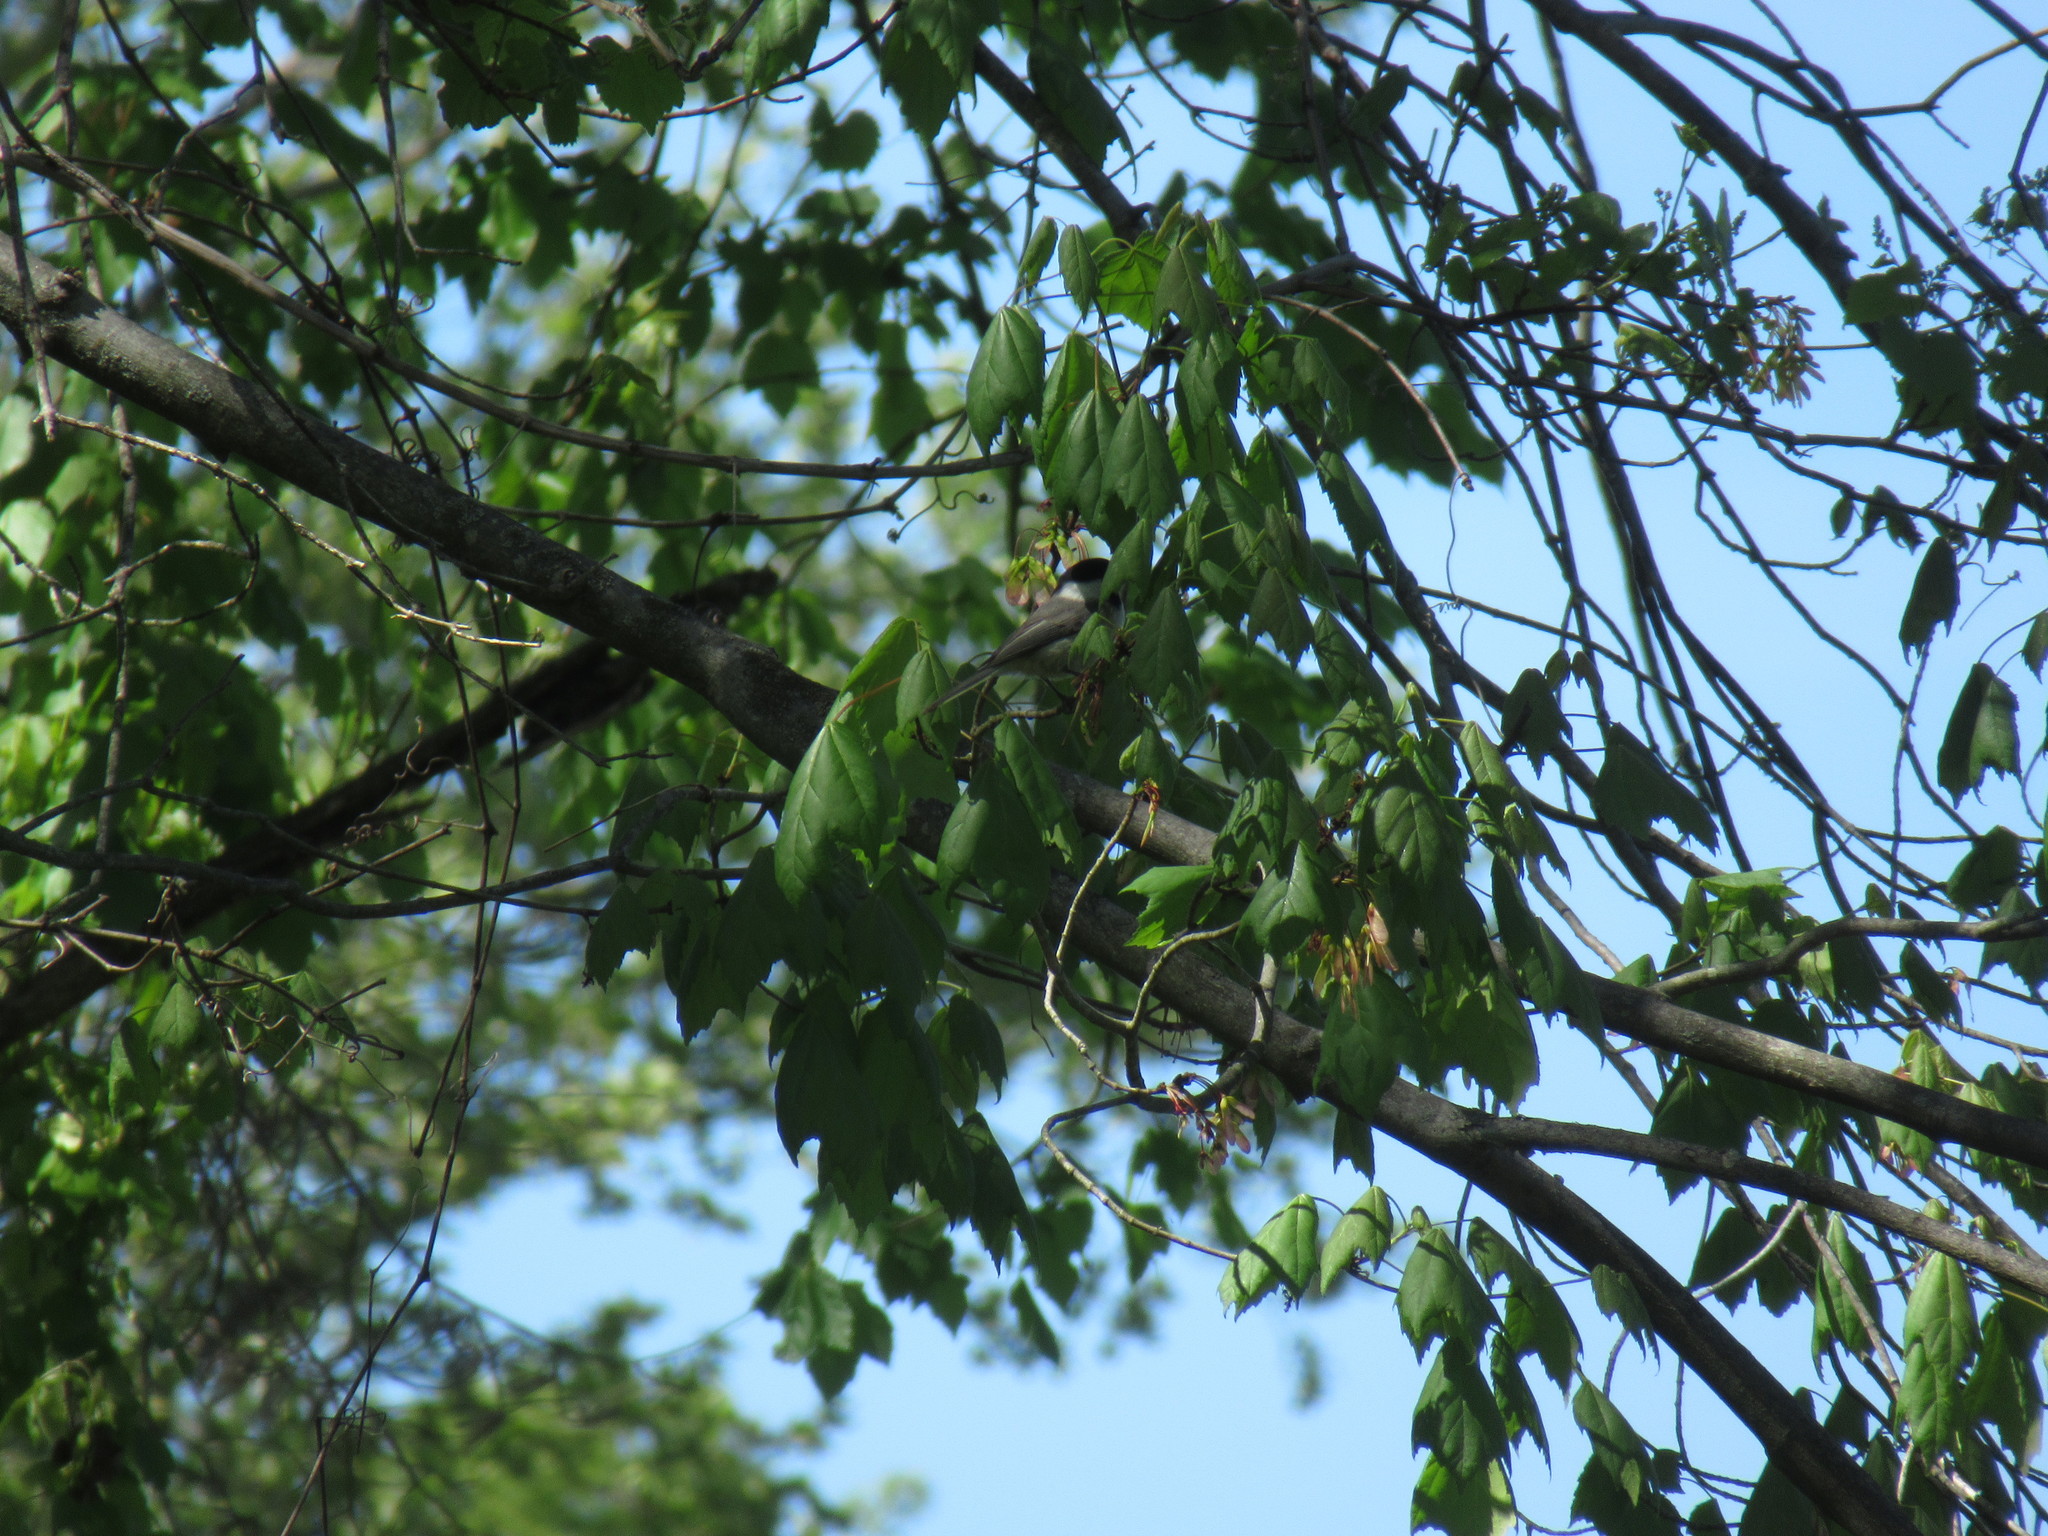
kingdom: Animalia
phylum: Chordata
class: Aves
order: Passeriformes
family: Paridae
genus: Poecile
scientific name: Poecile carolinensis
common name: Carolina chickadee
